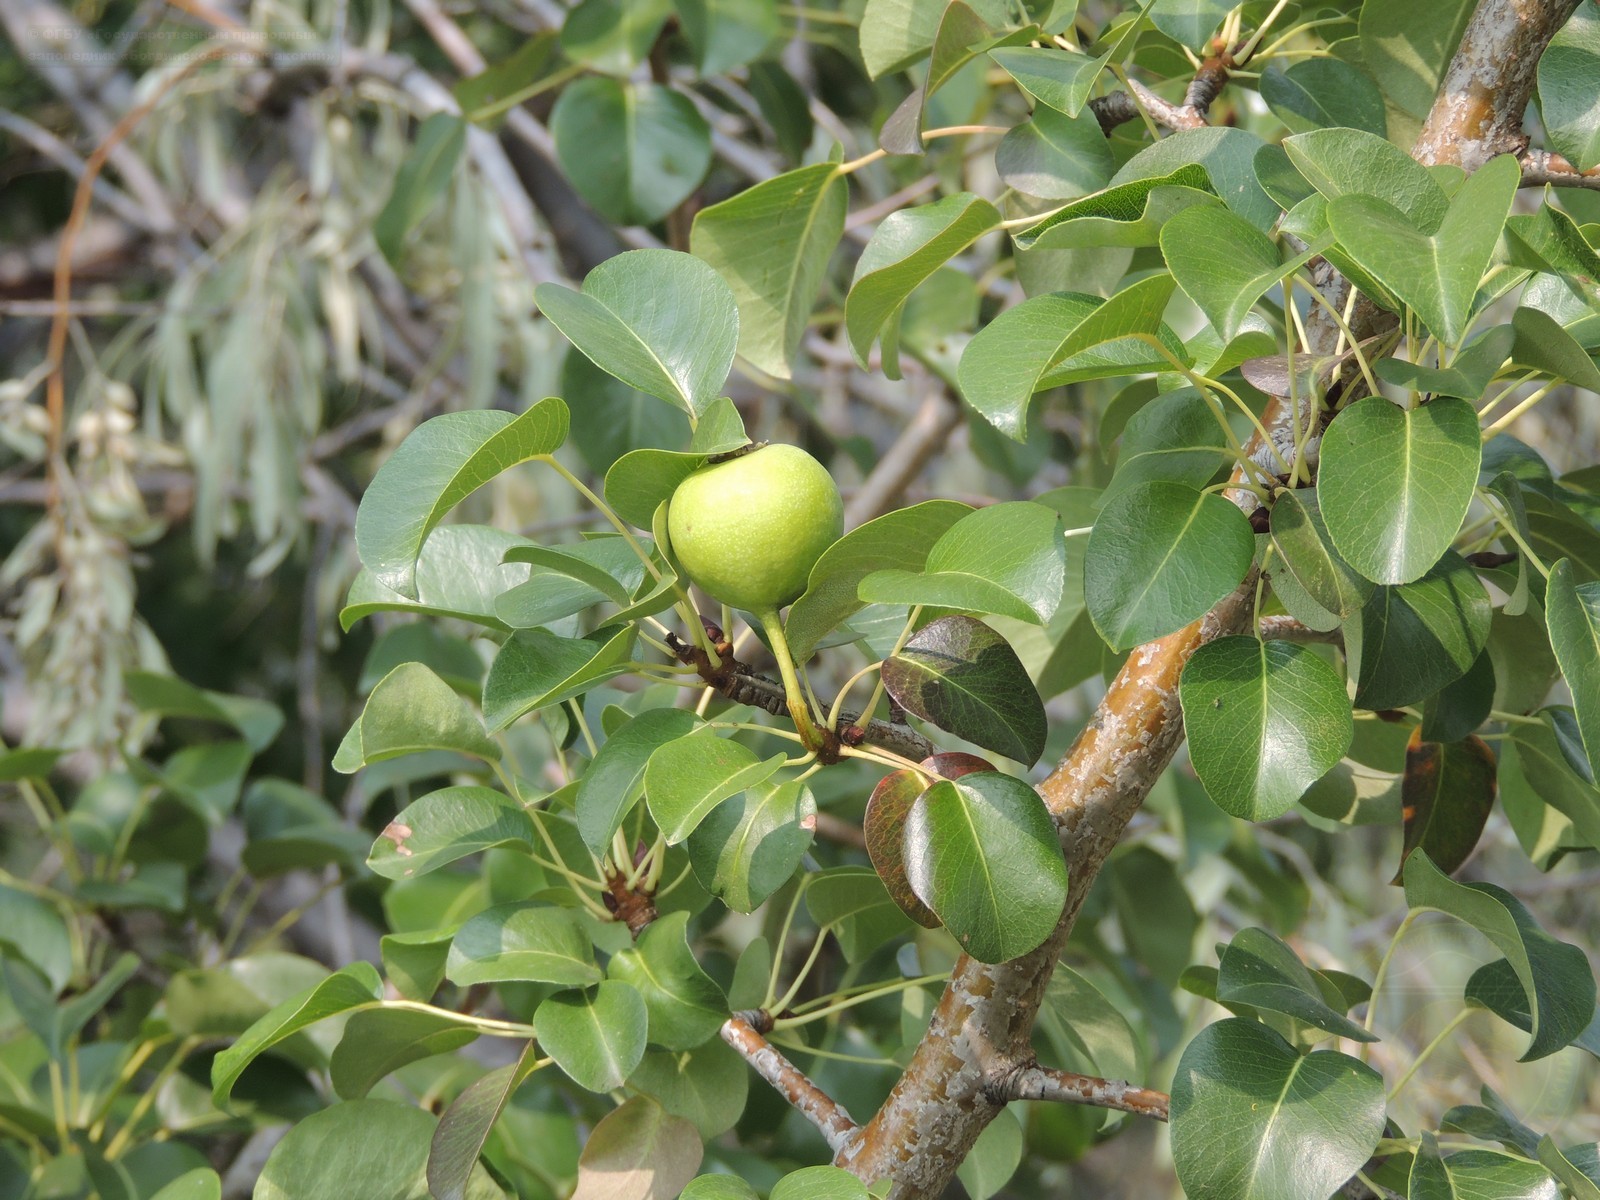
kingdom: Plantae
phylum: Tracheophyta
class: Magnoliopsida
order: Rosales
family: Rosaceae
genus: Pyrus
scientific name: Pyrus communis
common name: Pear
